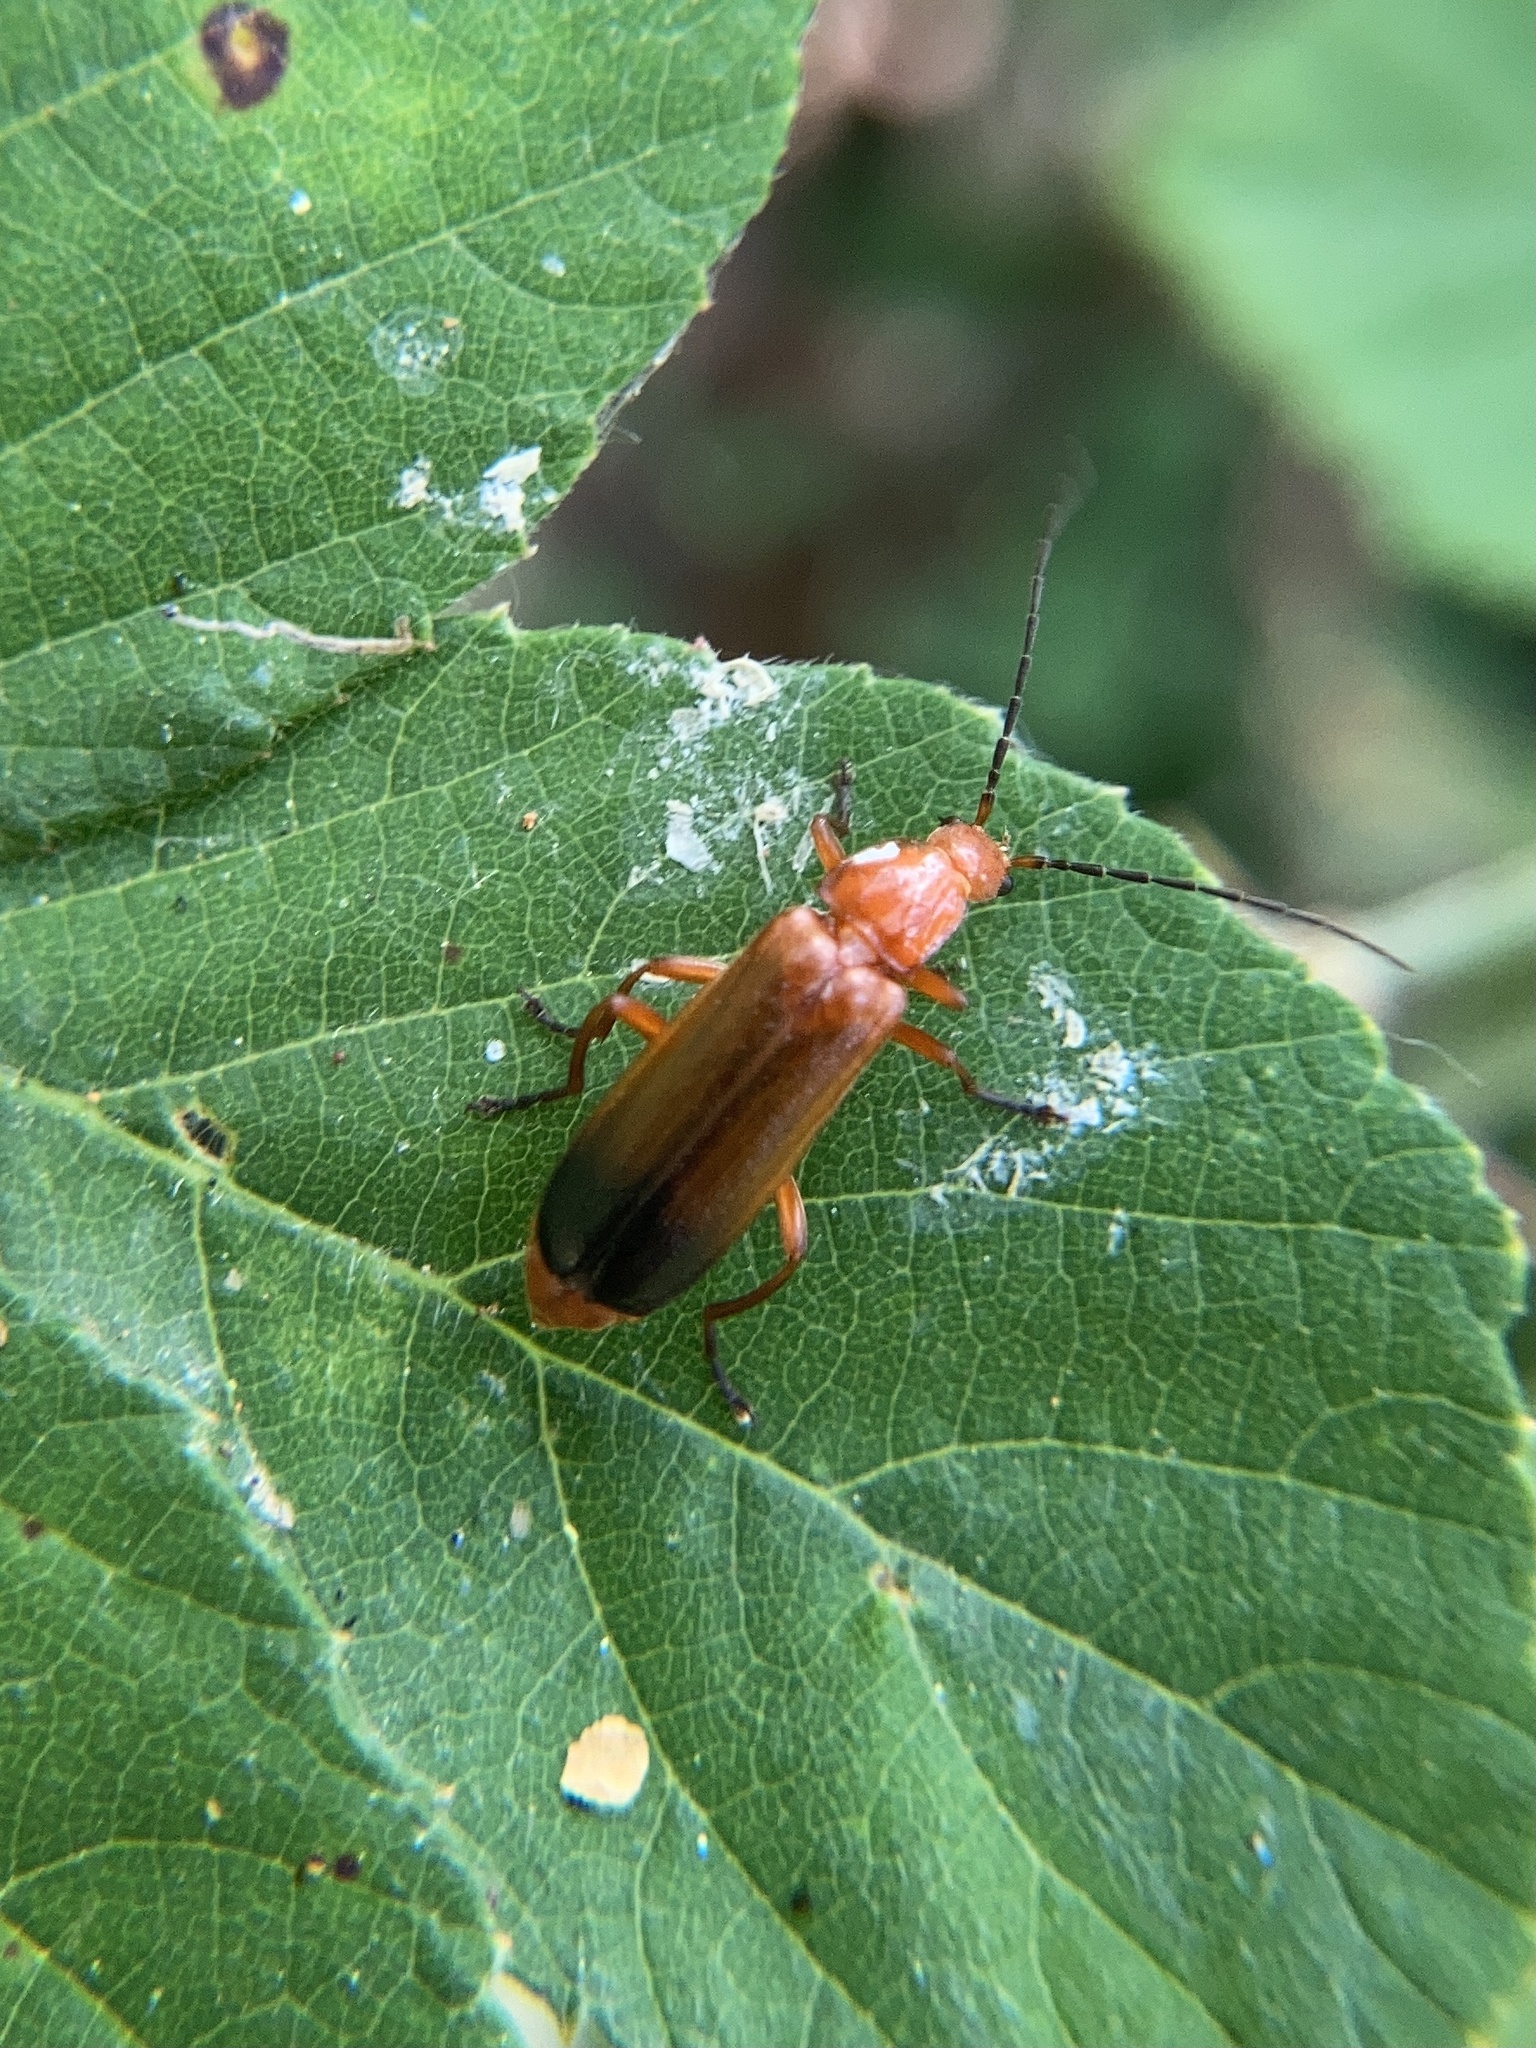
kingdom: Animalia
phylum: Arthropoda
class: Insecta
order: Coleoptera
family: Cantharidae
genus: Rhagonycha
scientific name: Rhagonycha fulva
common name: Common red soldier beetle
